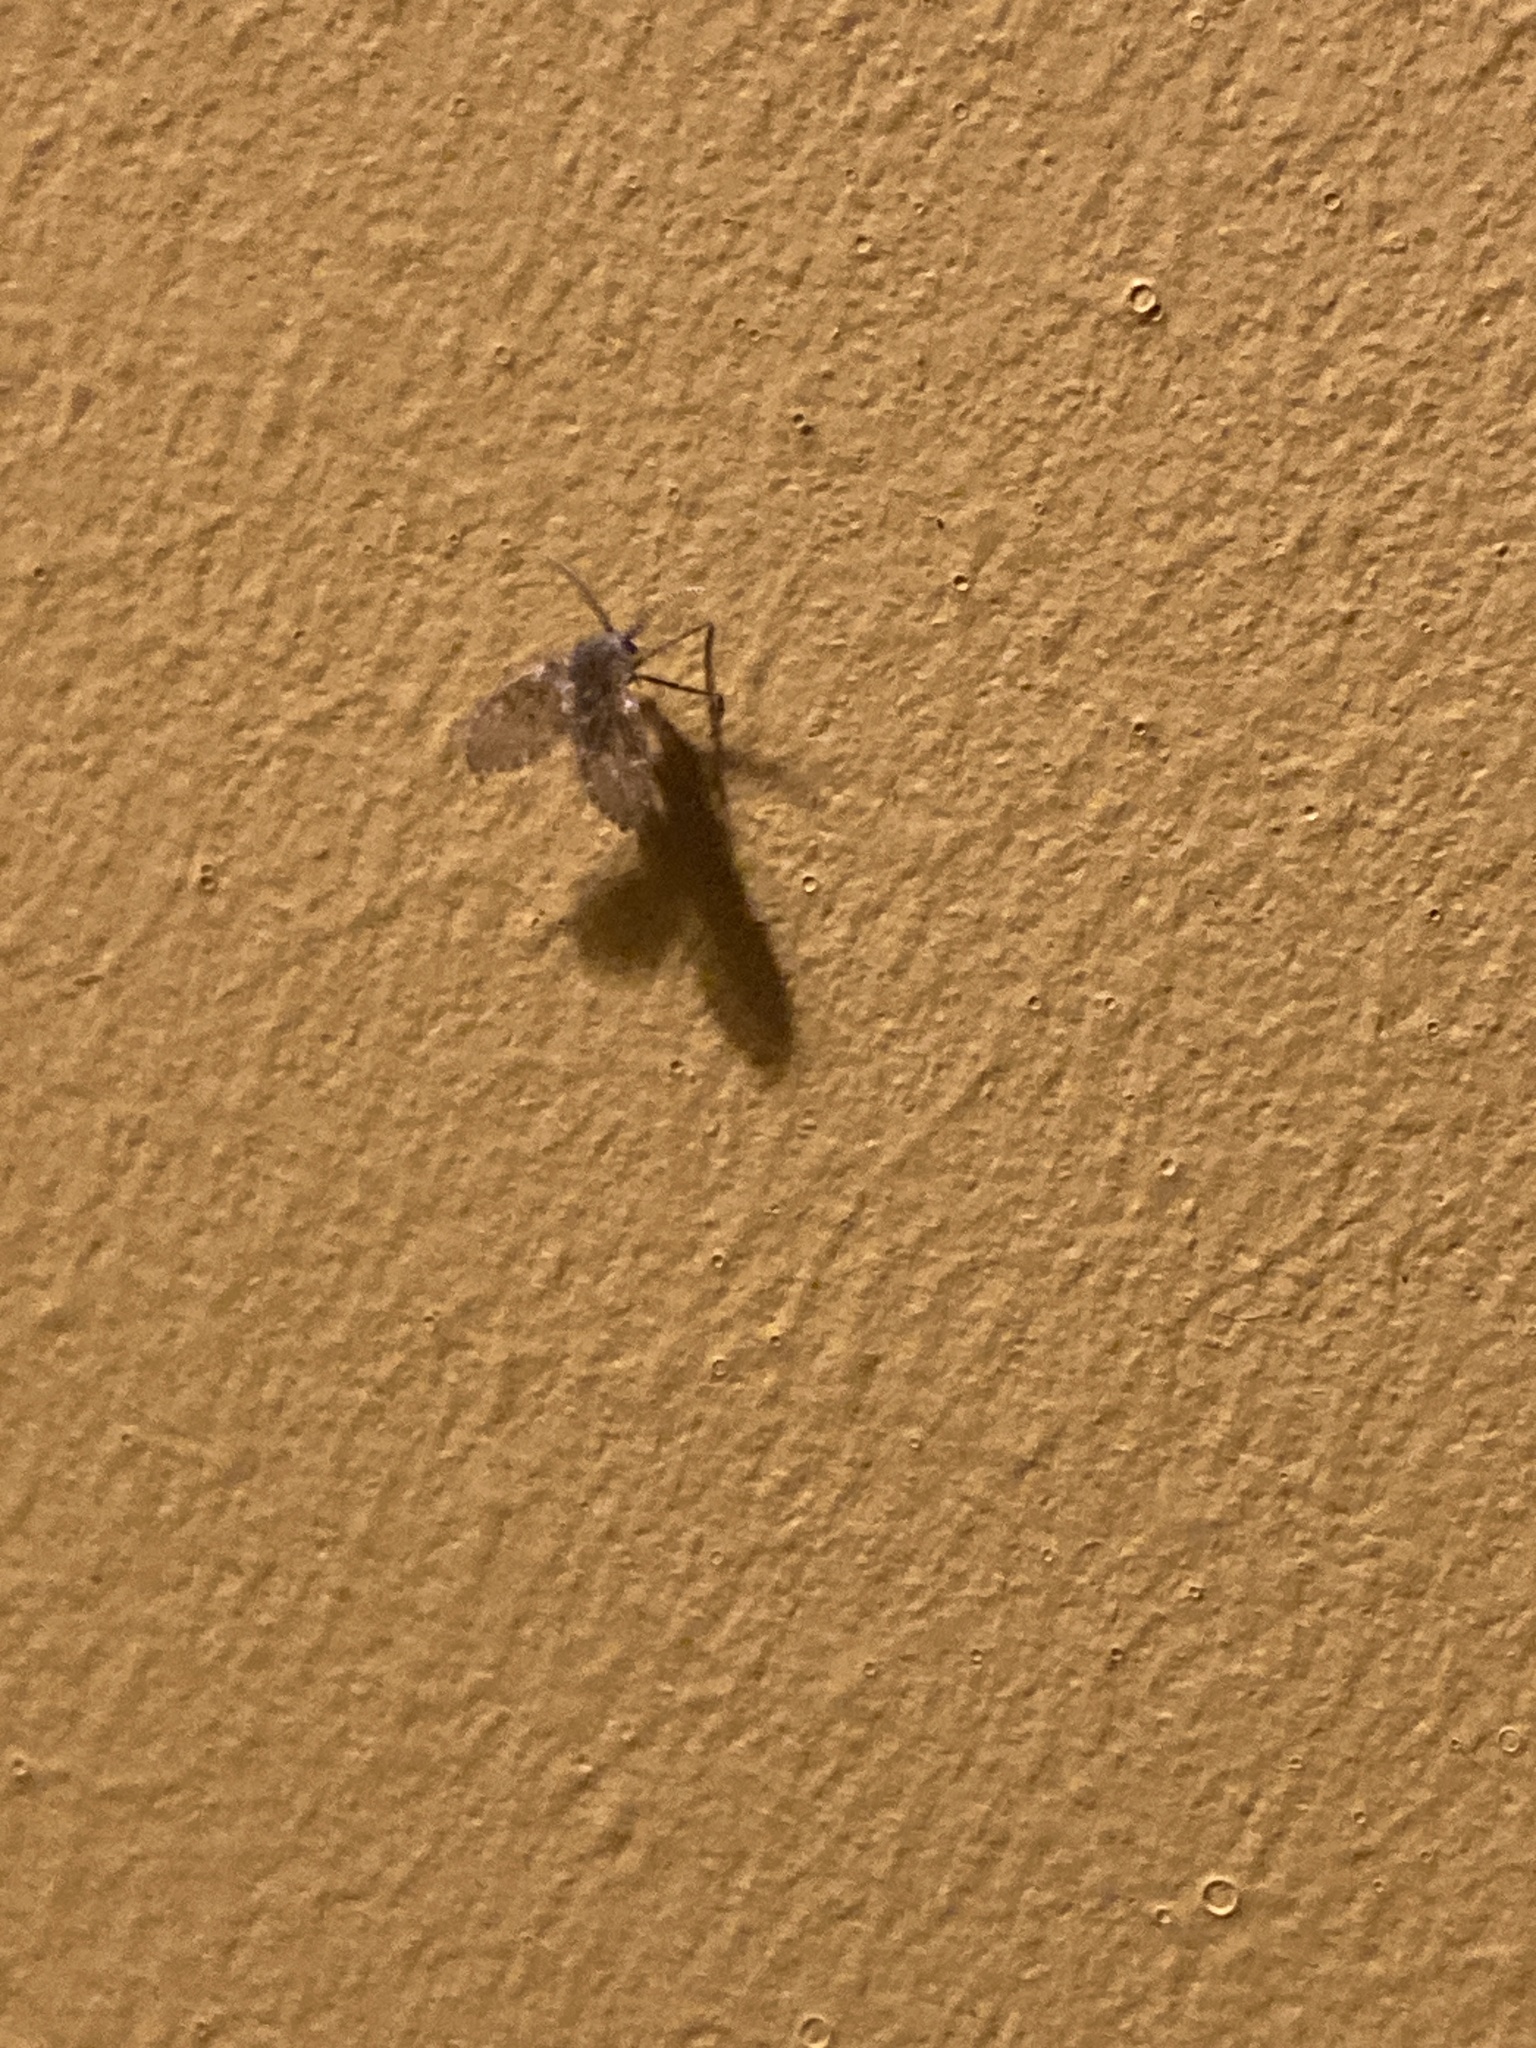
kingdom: Animalia
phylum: Arthropoda
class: Insecta
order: Diptera
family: Psychodidae
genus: Clogmia
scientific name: Clogmia albipunctatus
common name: White-spotted moth fly
